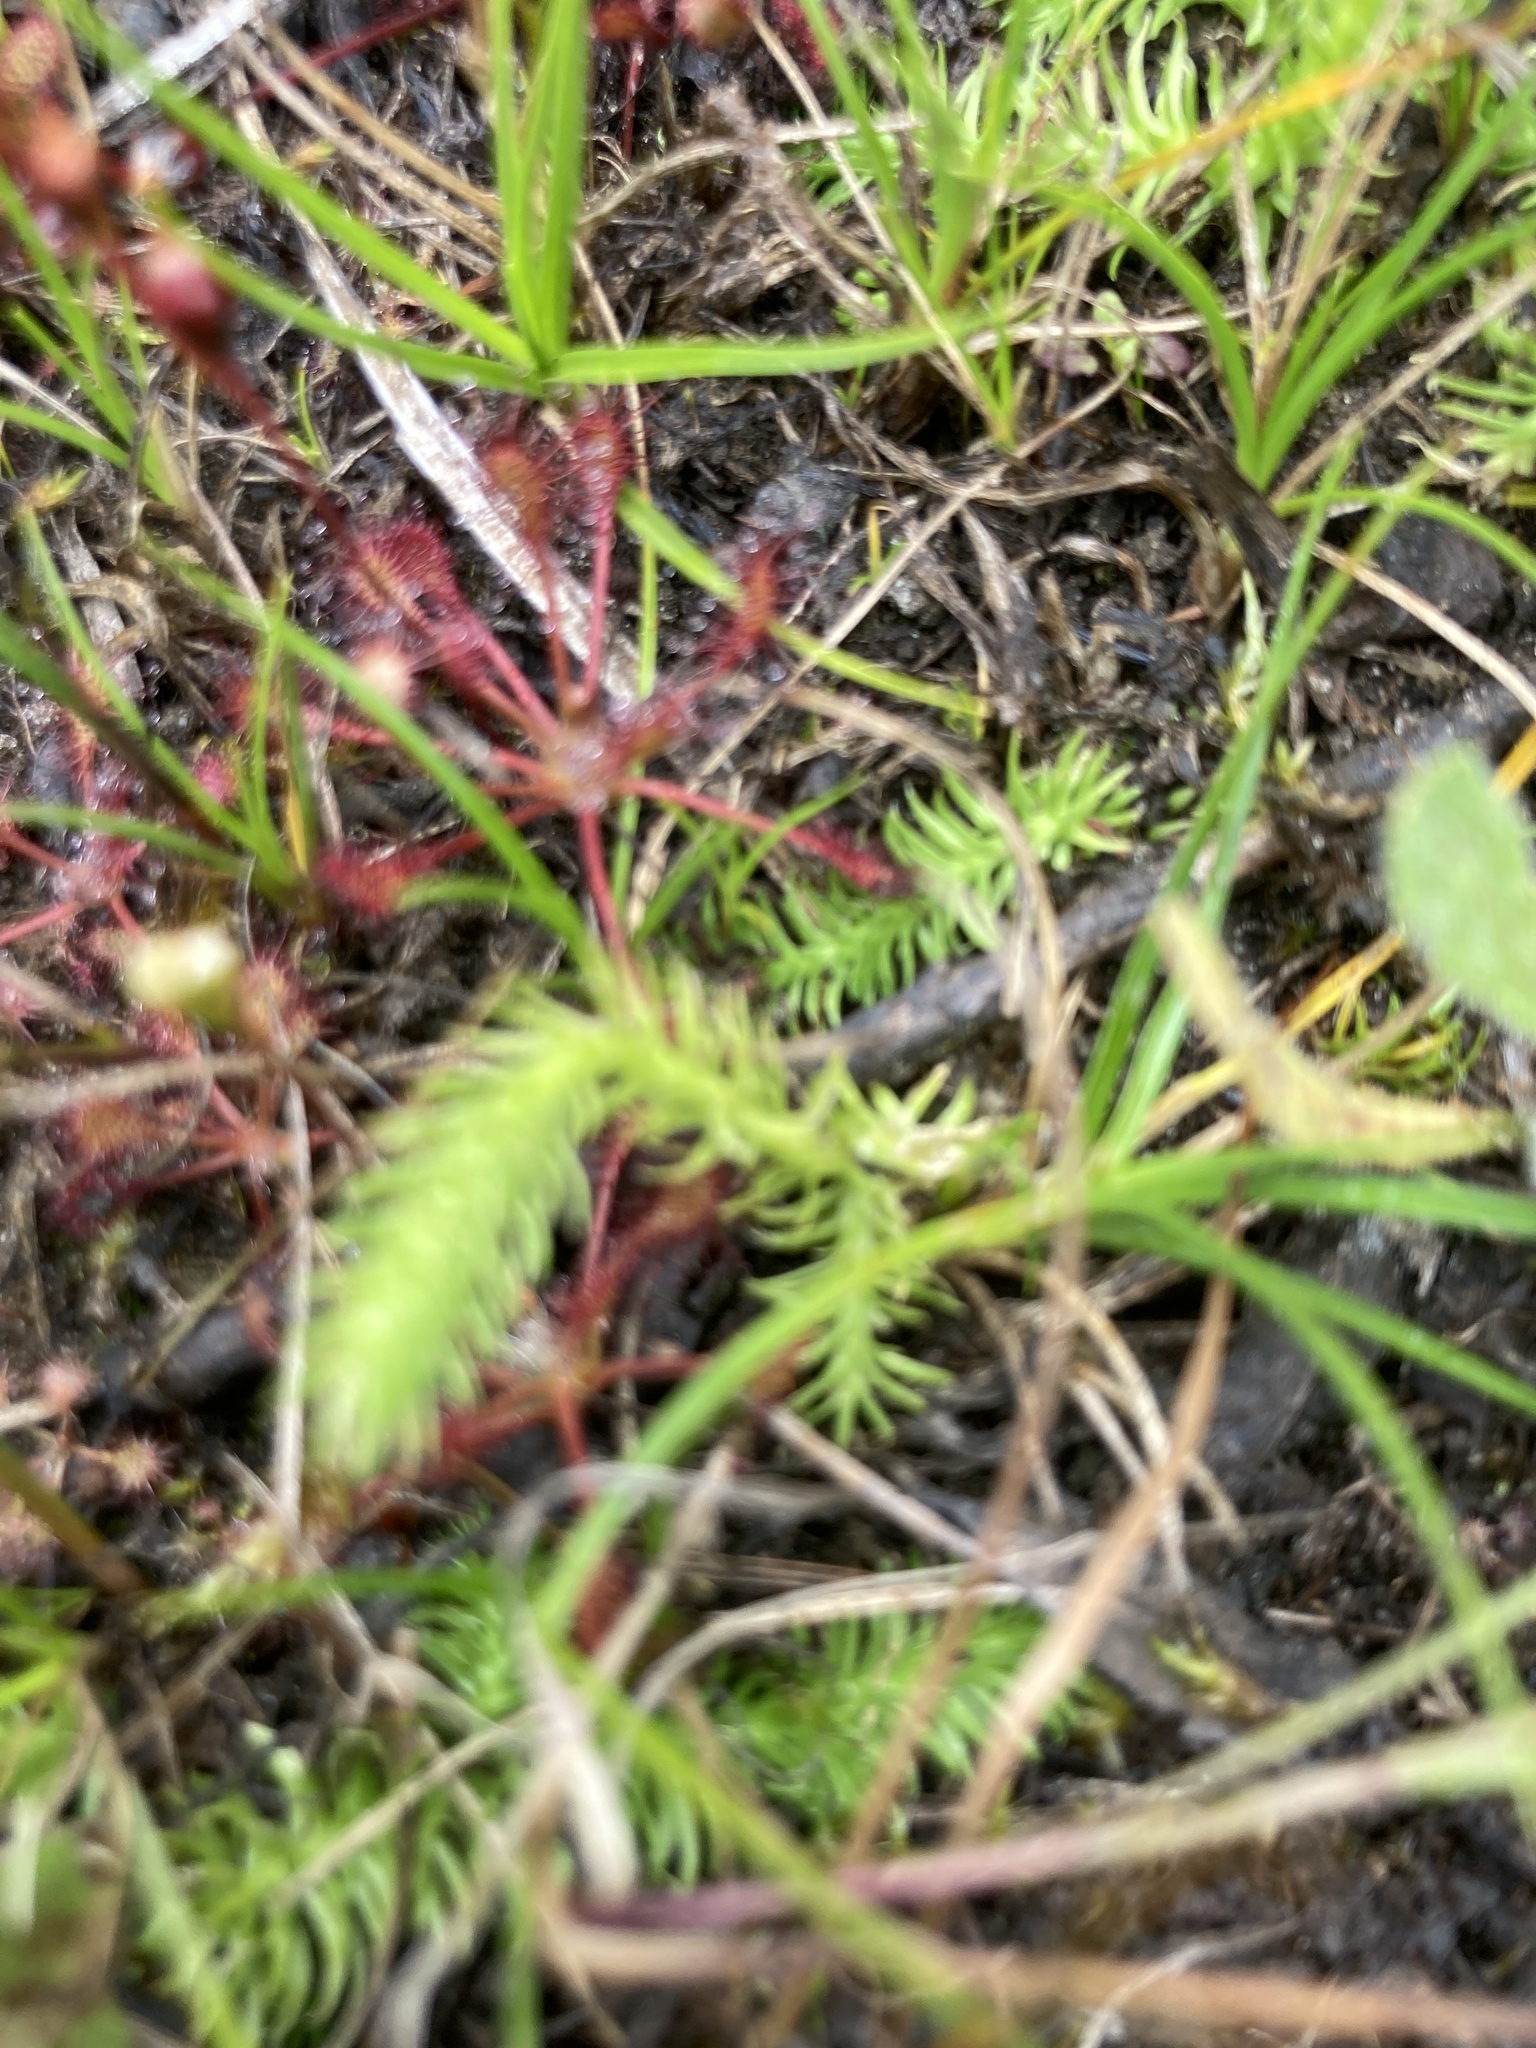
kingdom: Plantae
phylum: Tracheophyta
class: Lycopodiopsida
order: Lycopodiales
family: Lycopodiaceae
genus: Lycopodiella
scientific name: Lycopodiella inundata
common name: Marsh clubmoss
